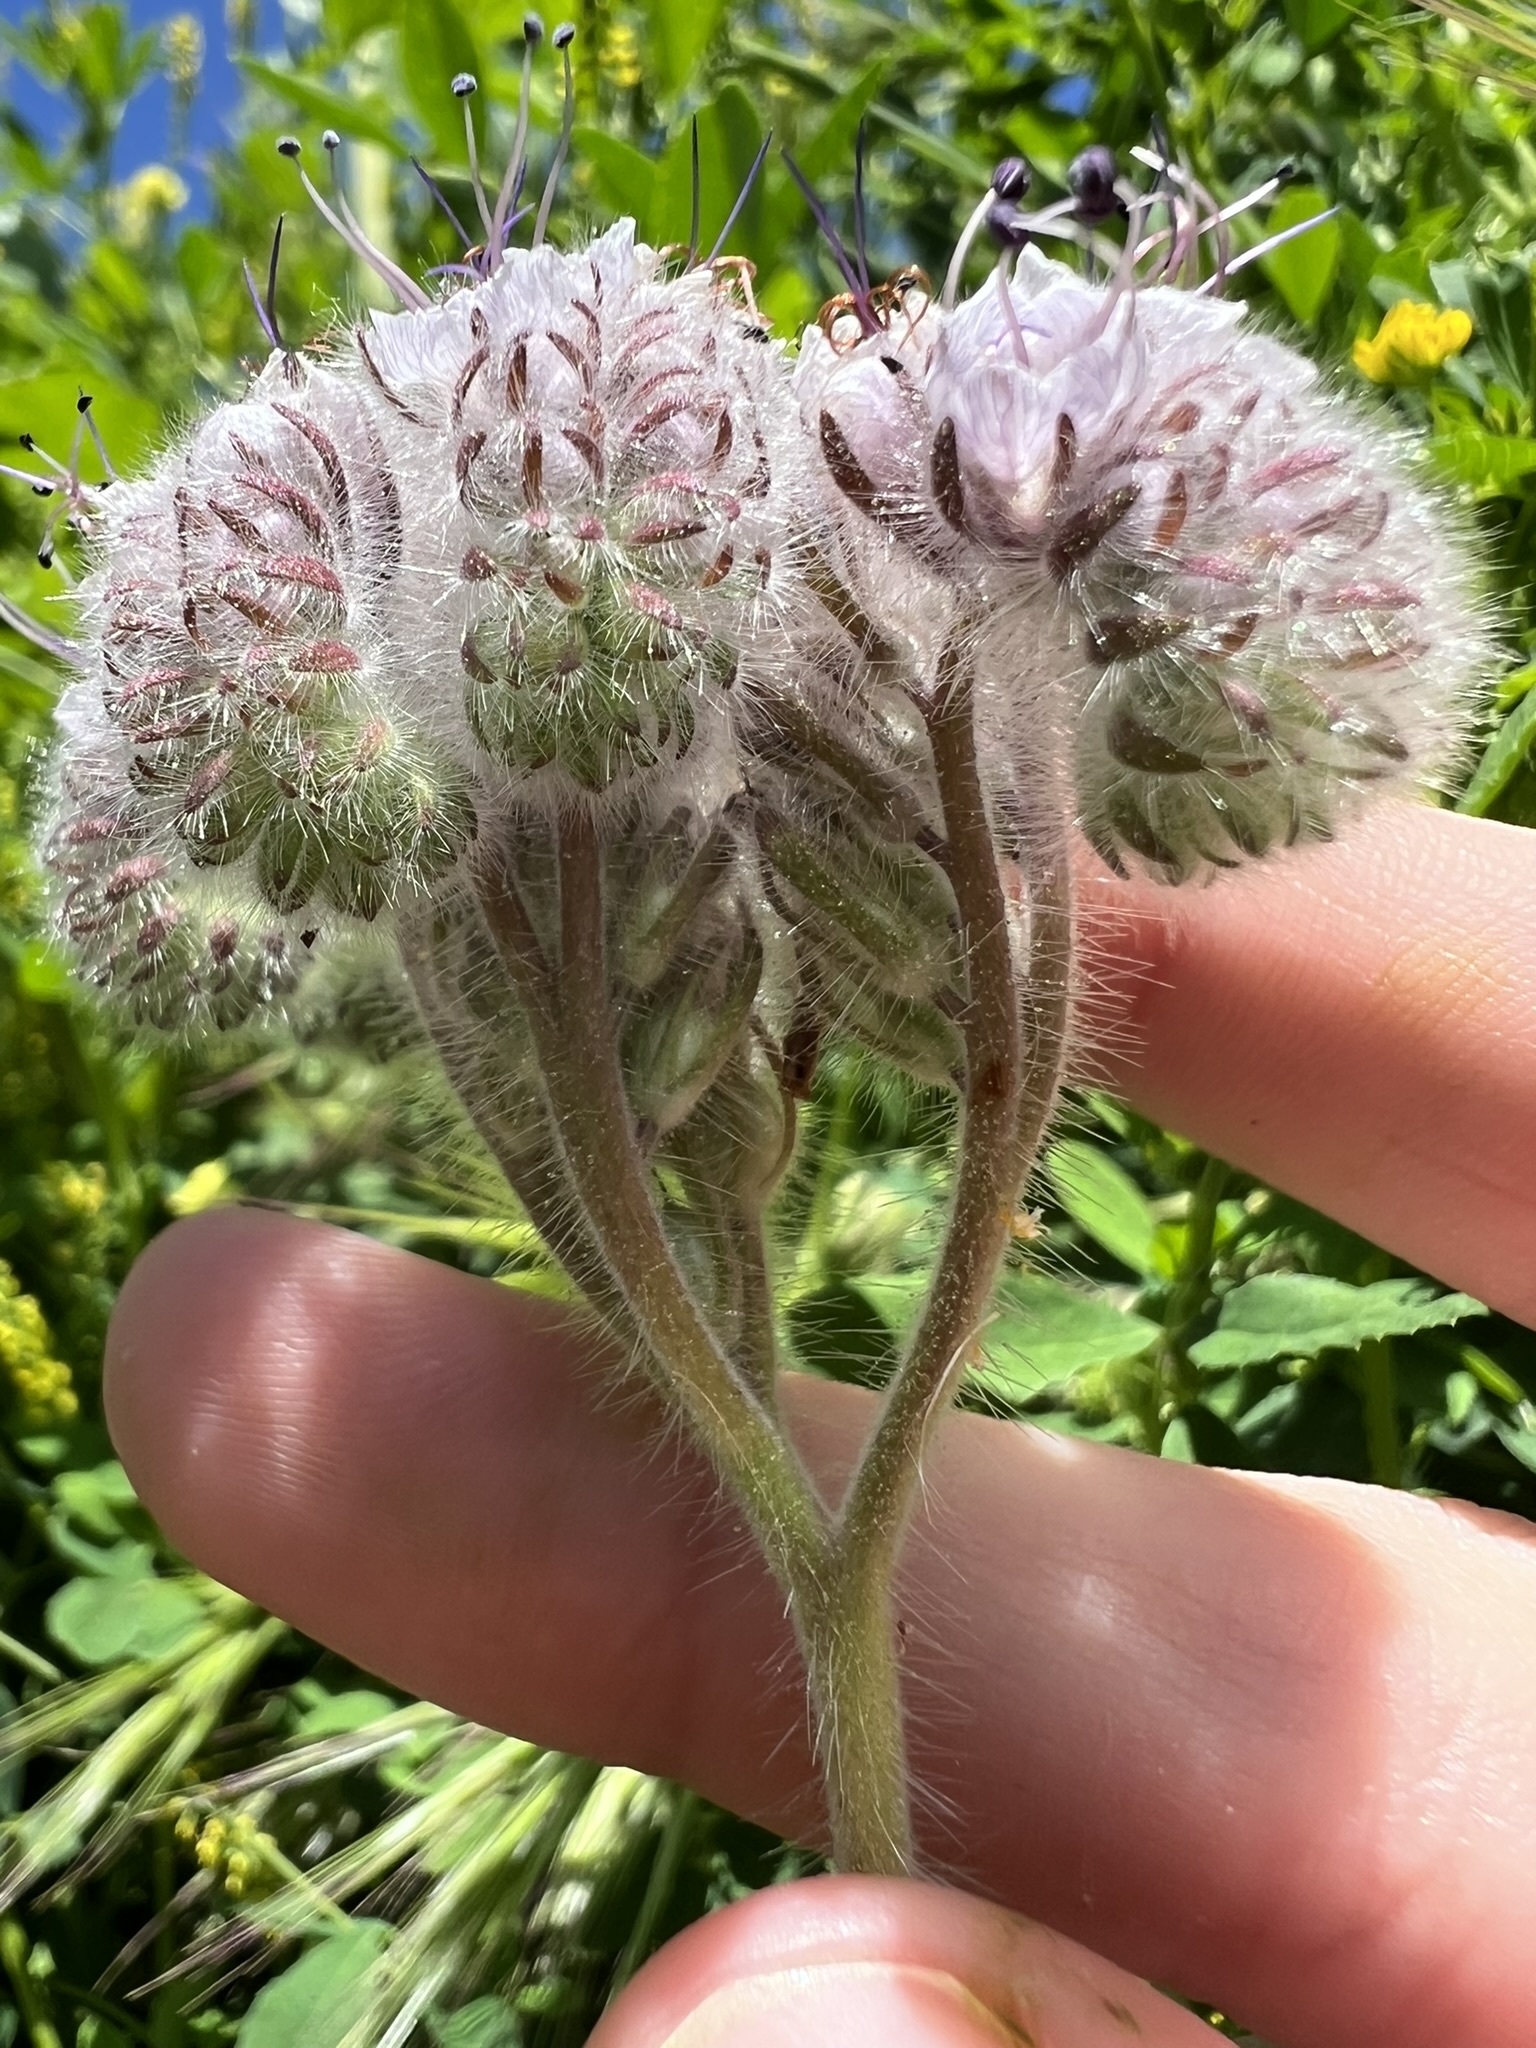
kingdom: Plantae
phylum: Tracheophyta
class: Magnoliopsida
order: Boraginales
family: Hydrophyllaceae
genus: Phacelia
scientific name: Phacelia hubbyi
